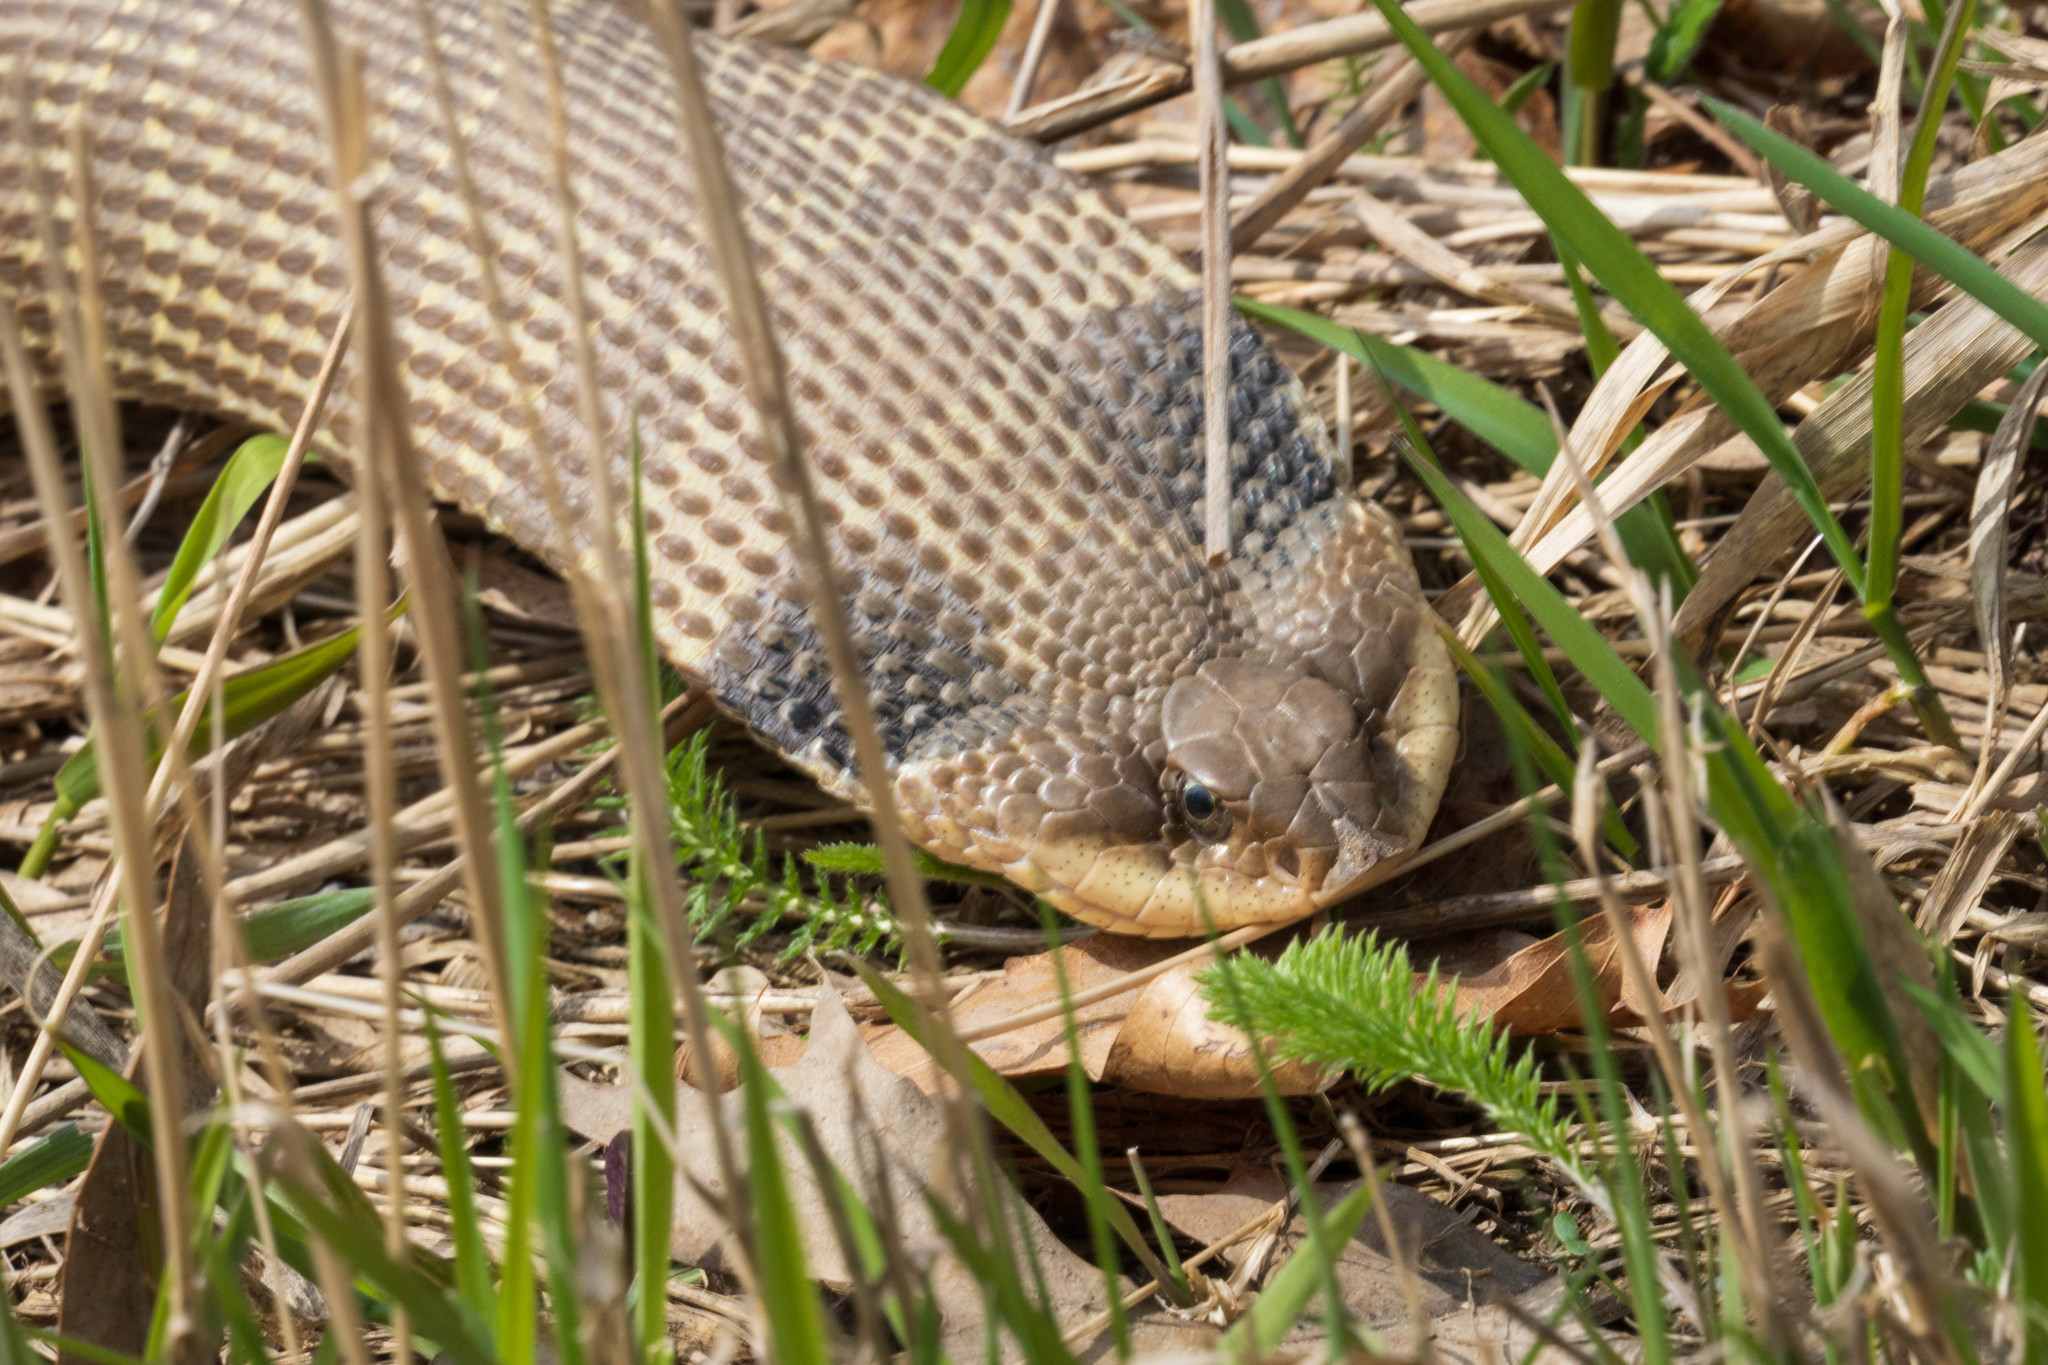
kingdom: Animalia
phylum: Chordata
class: Squamata
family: Colubridae
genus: Heterodon
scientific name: Heterodon platirhinos
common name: Eastern hognose snake
